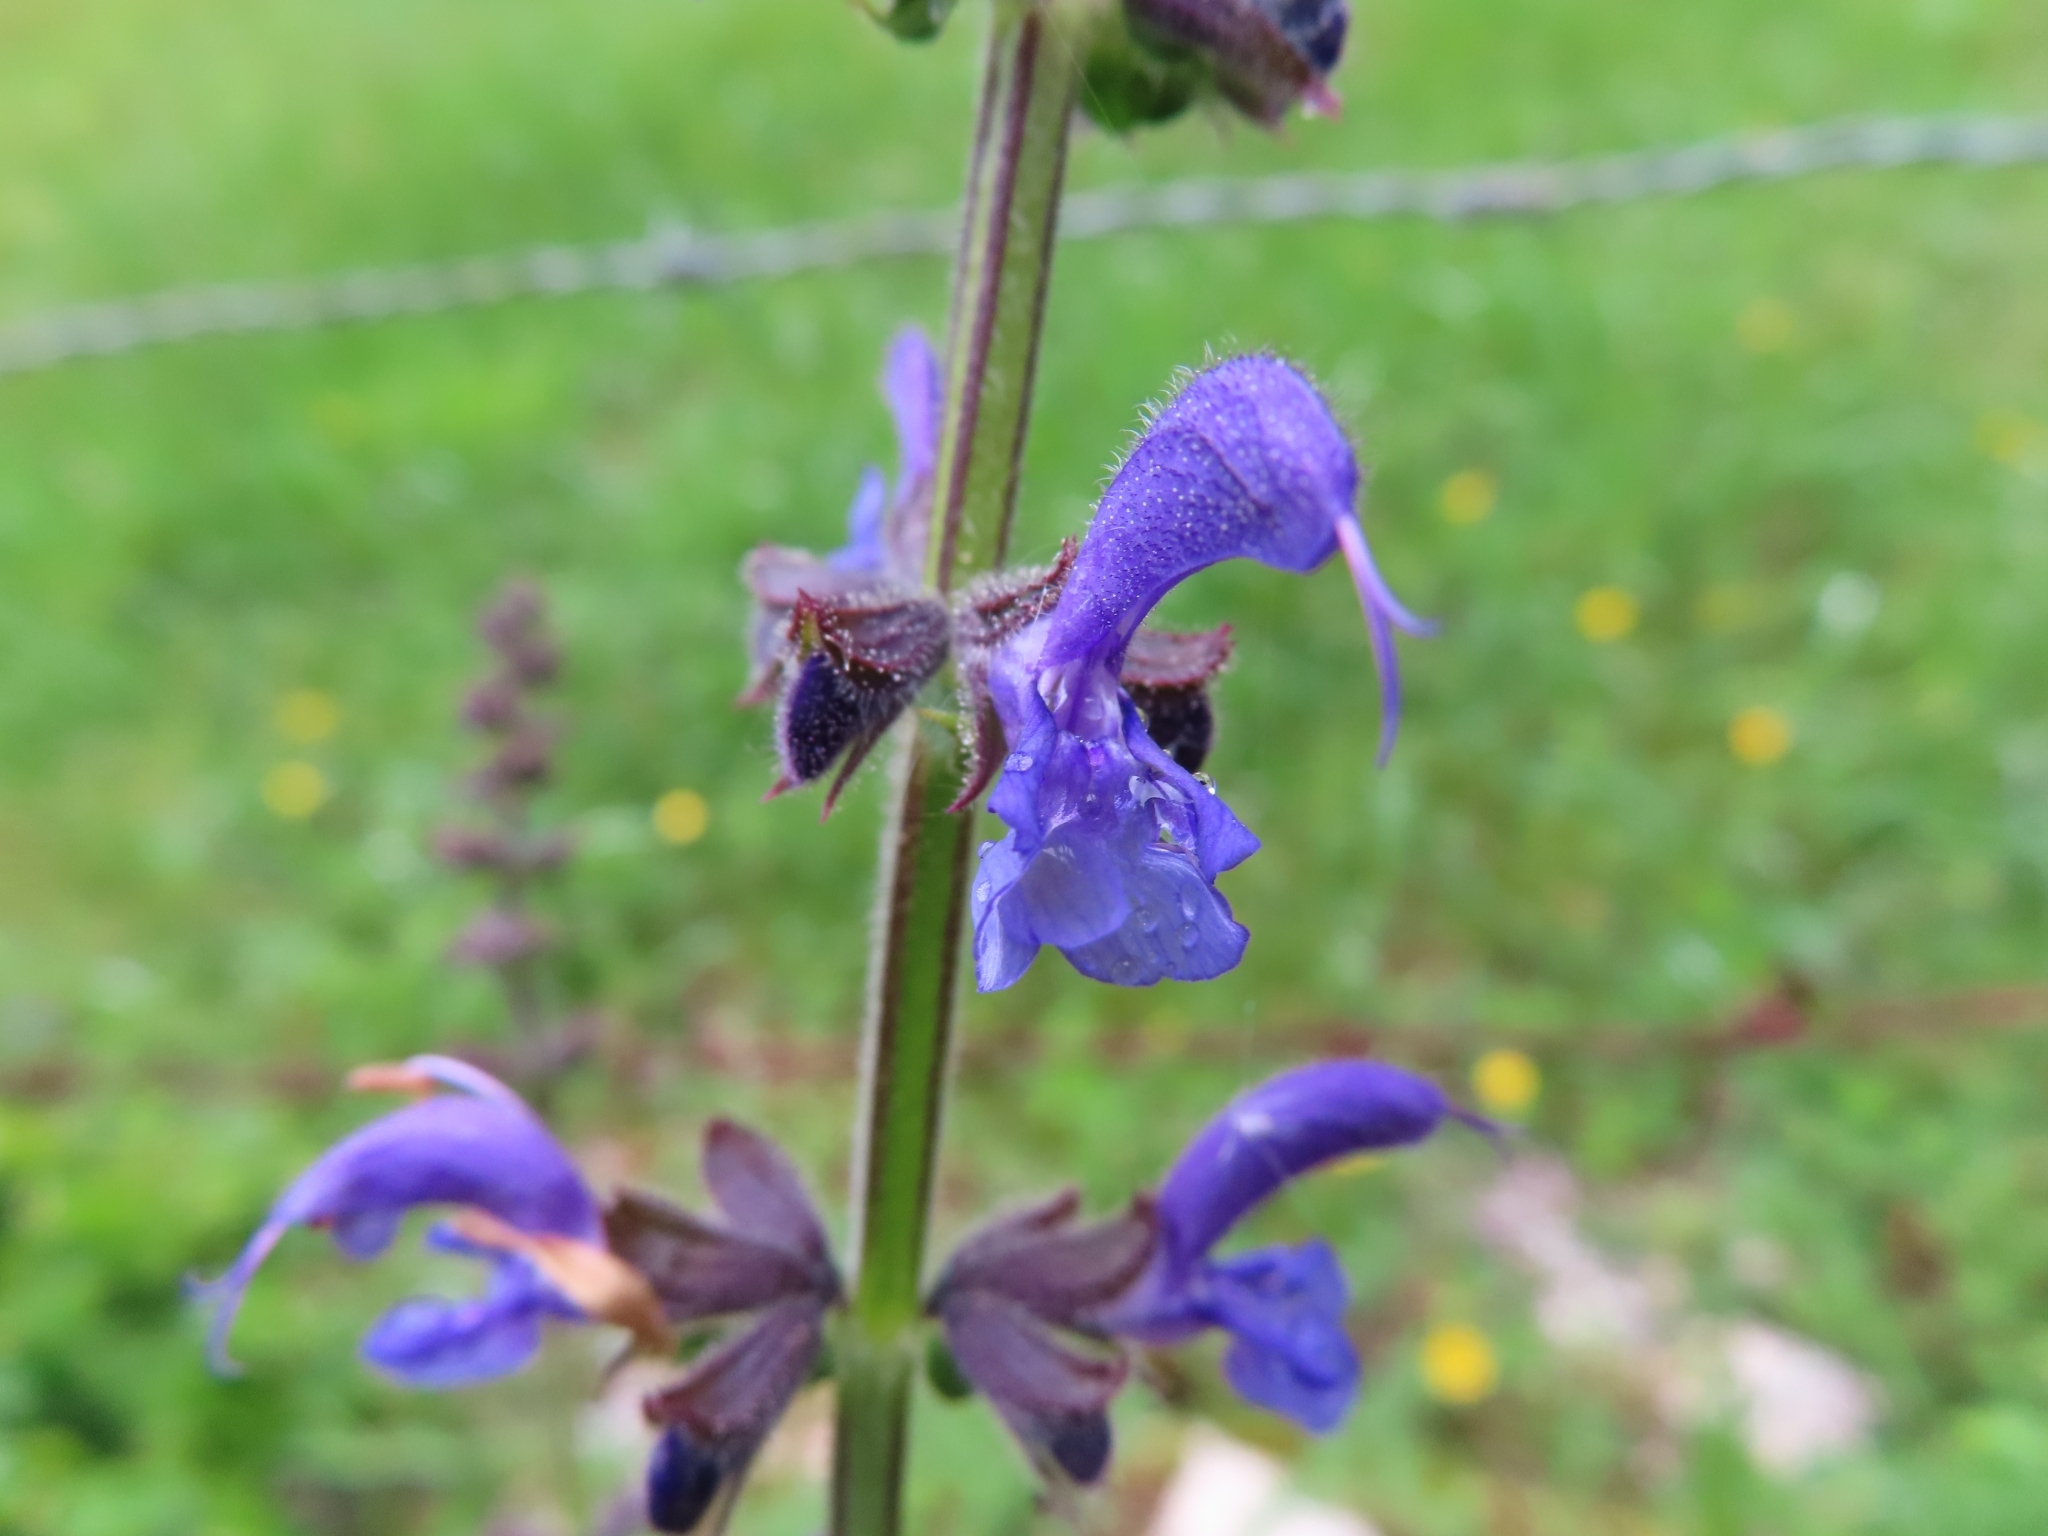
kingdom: Plantae
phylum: Tracheophyta
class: Magnoliopsida
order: Lamiales
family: Lamiaceae
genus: Salvia
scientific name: Salvia pratensis
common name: Meadow sage
